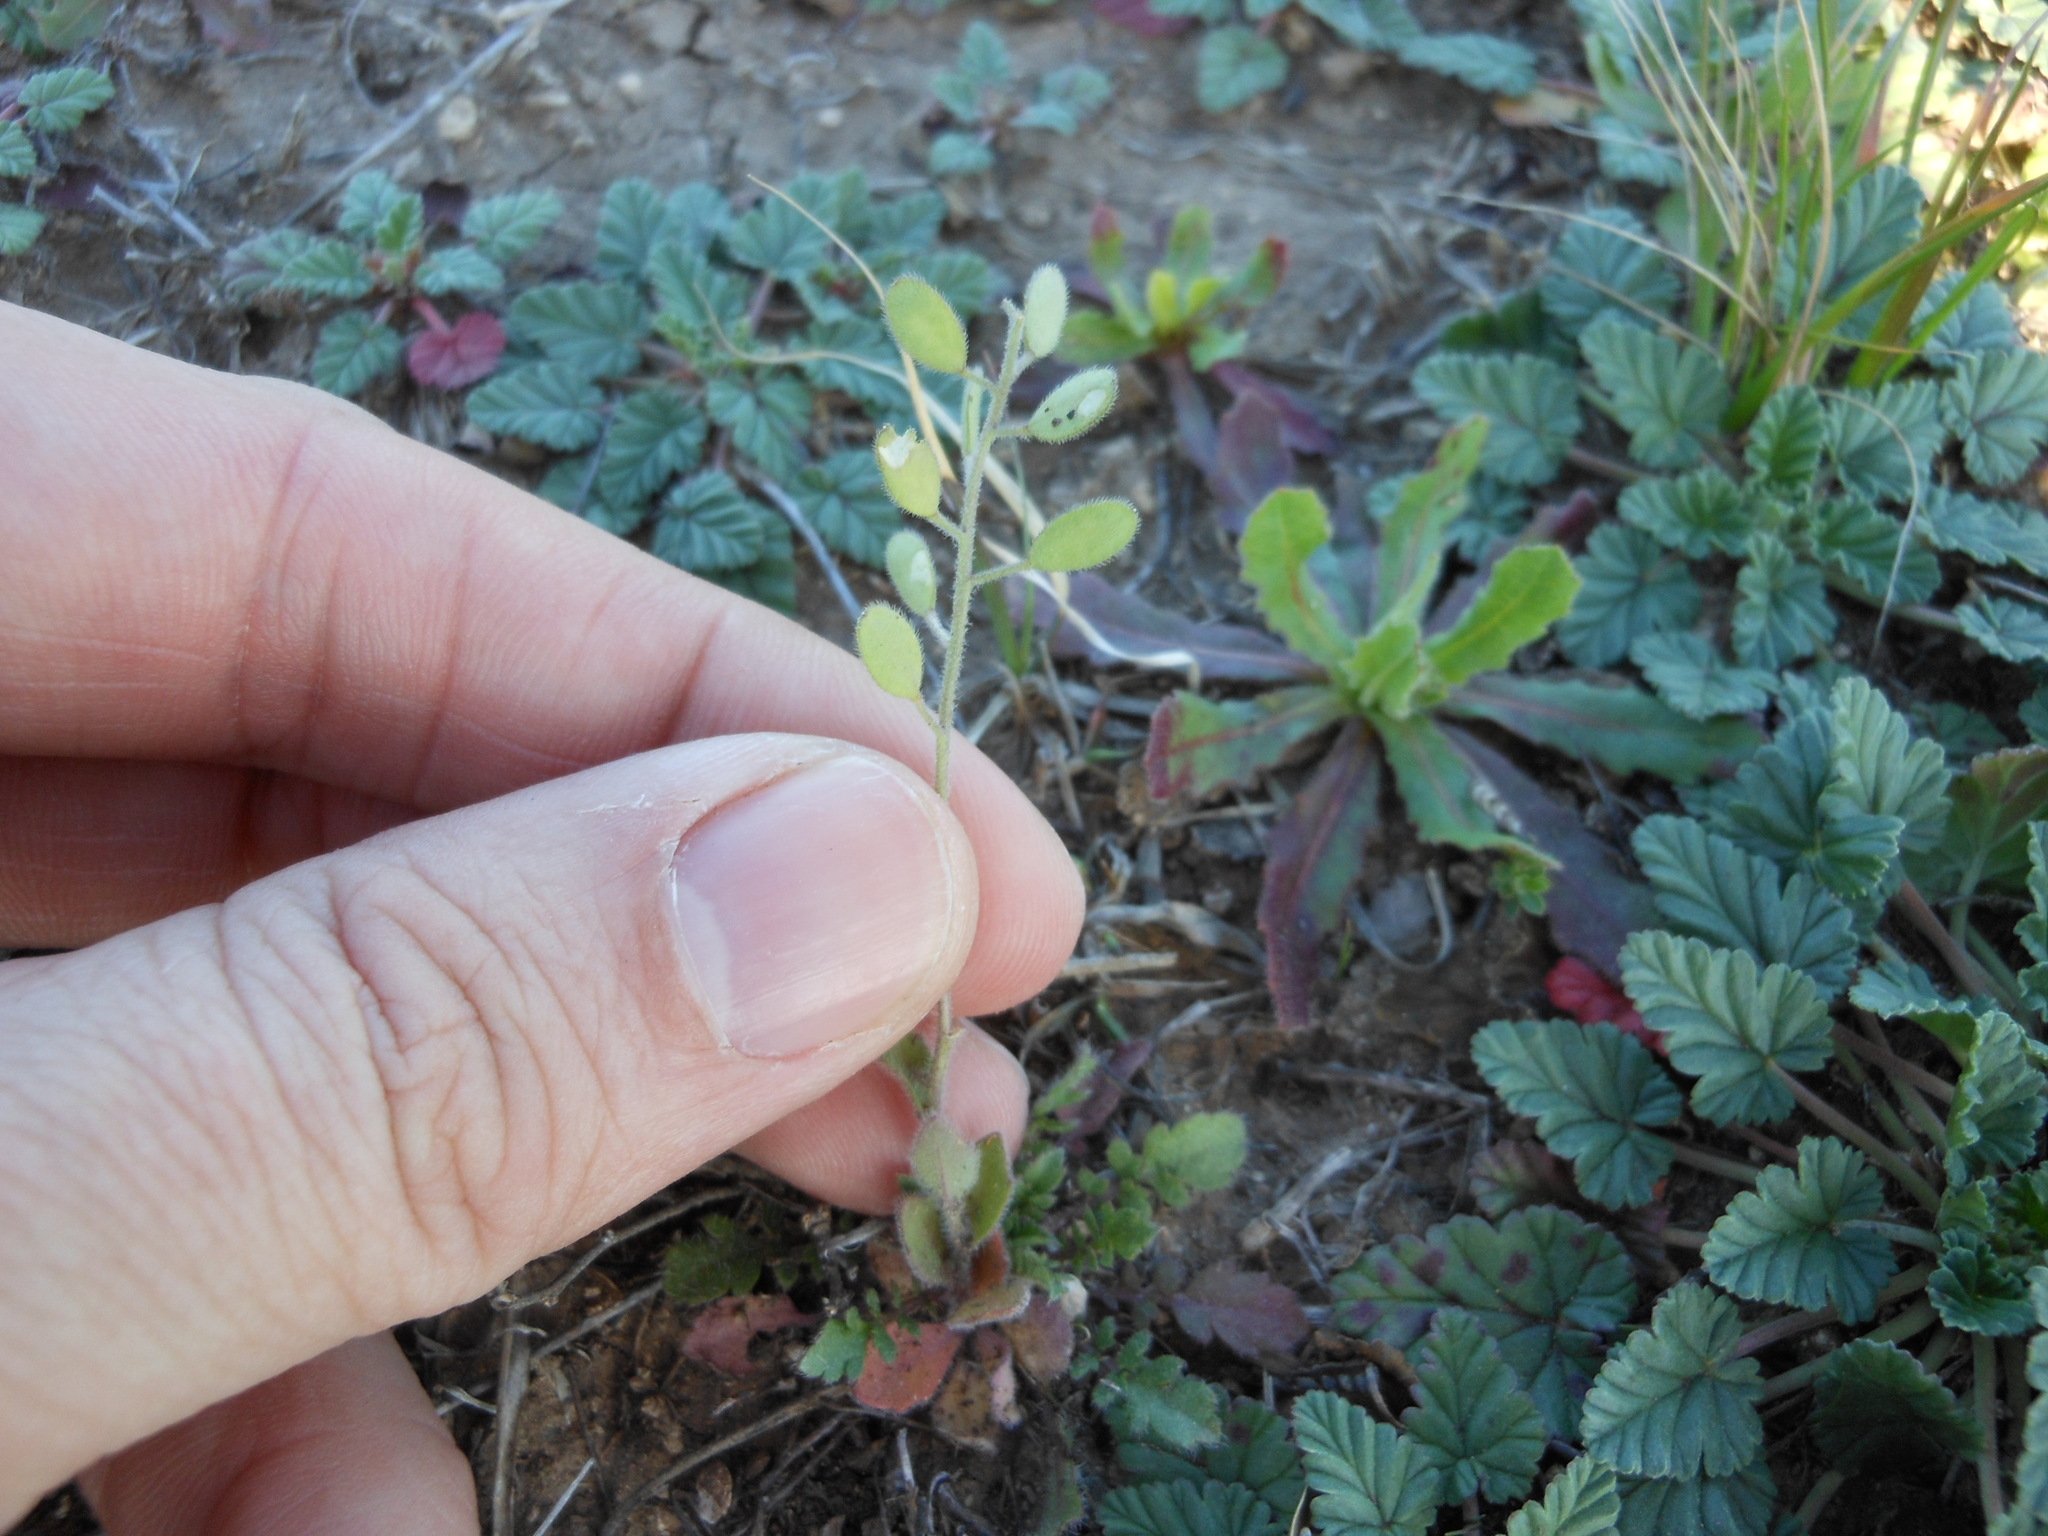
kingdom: Plantae
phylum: Tracheophyta
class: Magnoliopsida
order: Brassicales
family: Brassicaceae
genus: Tomostima
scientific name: Tomostima platycarpa
